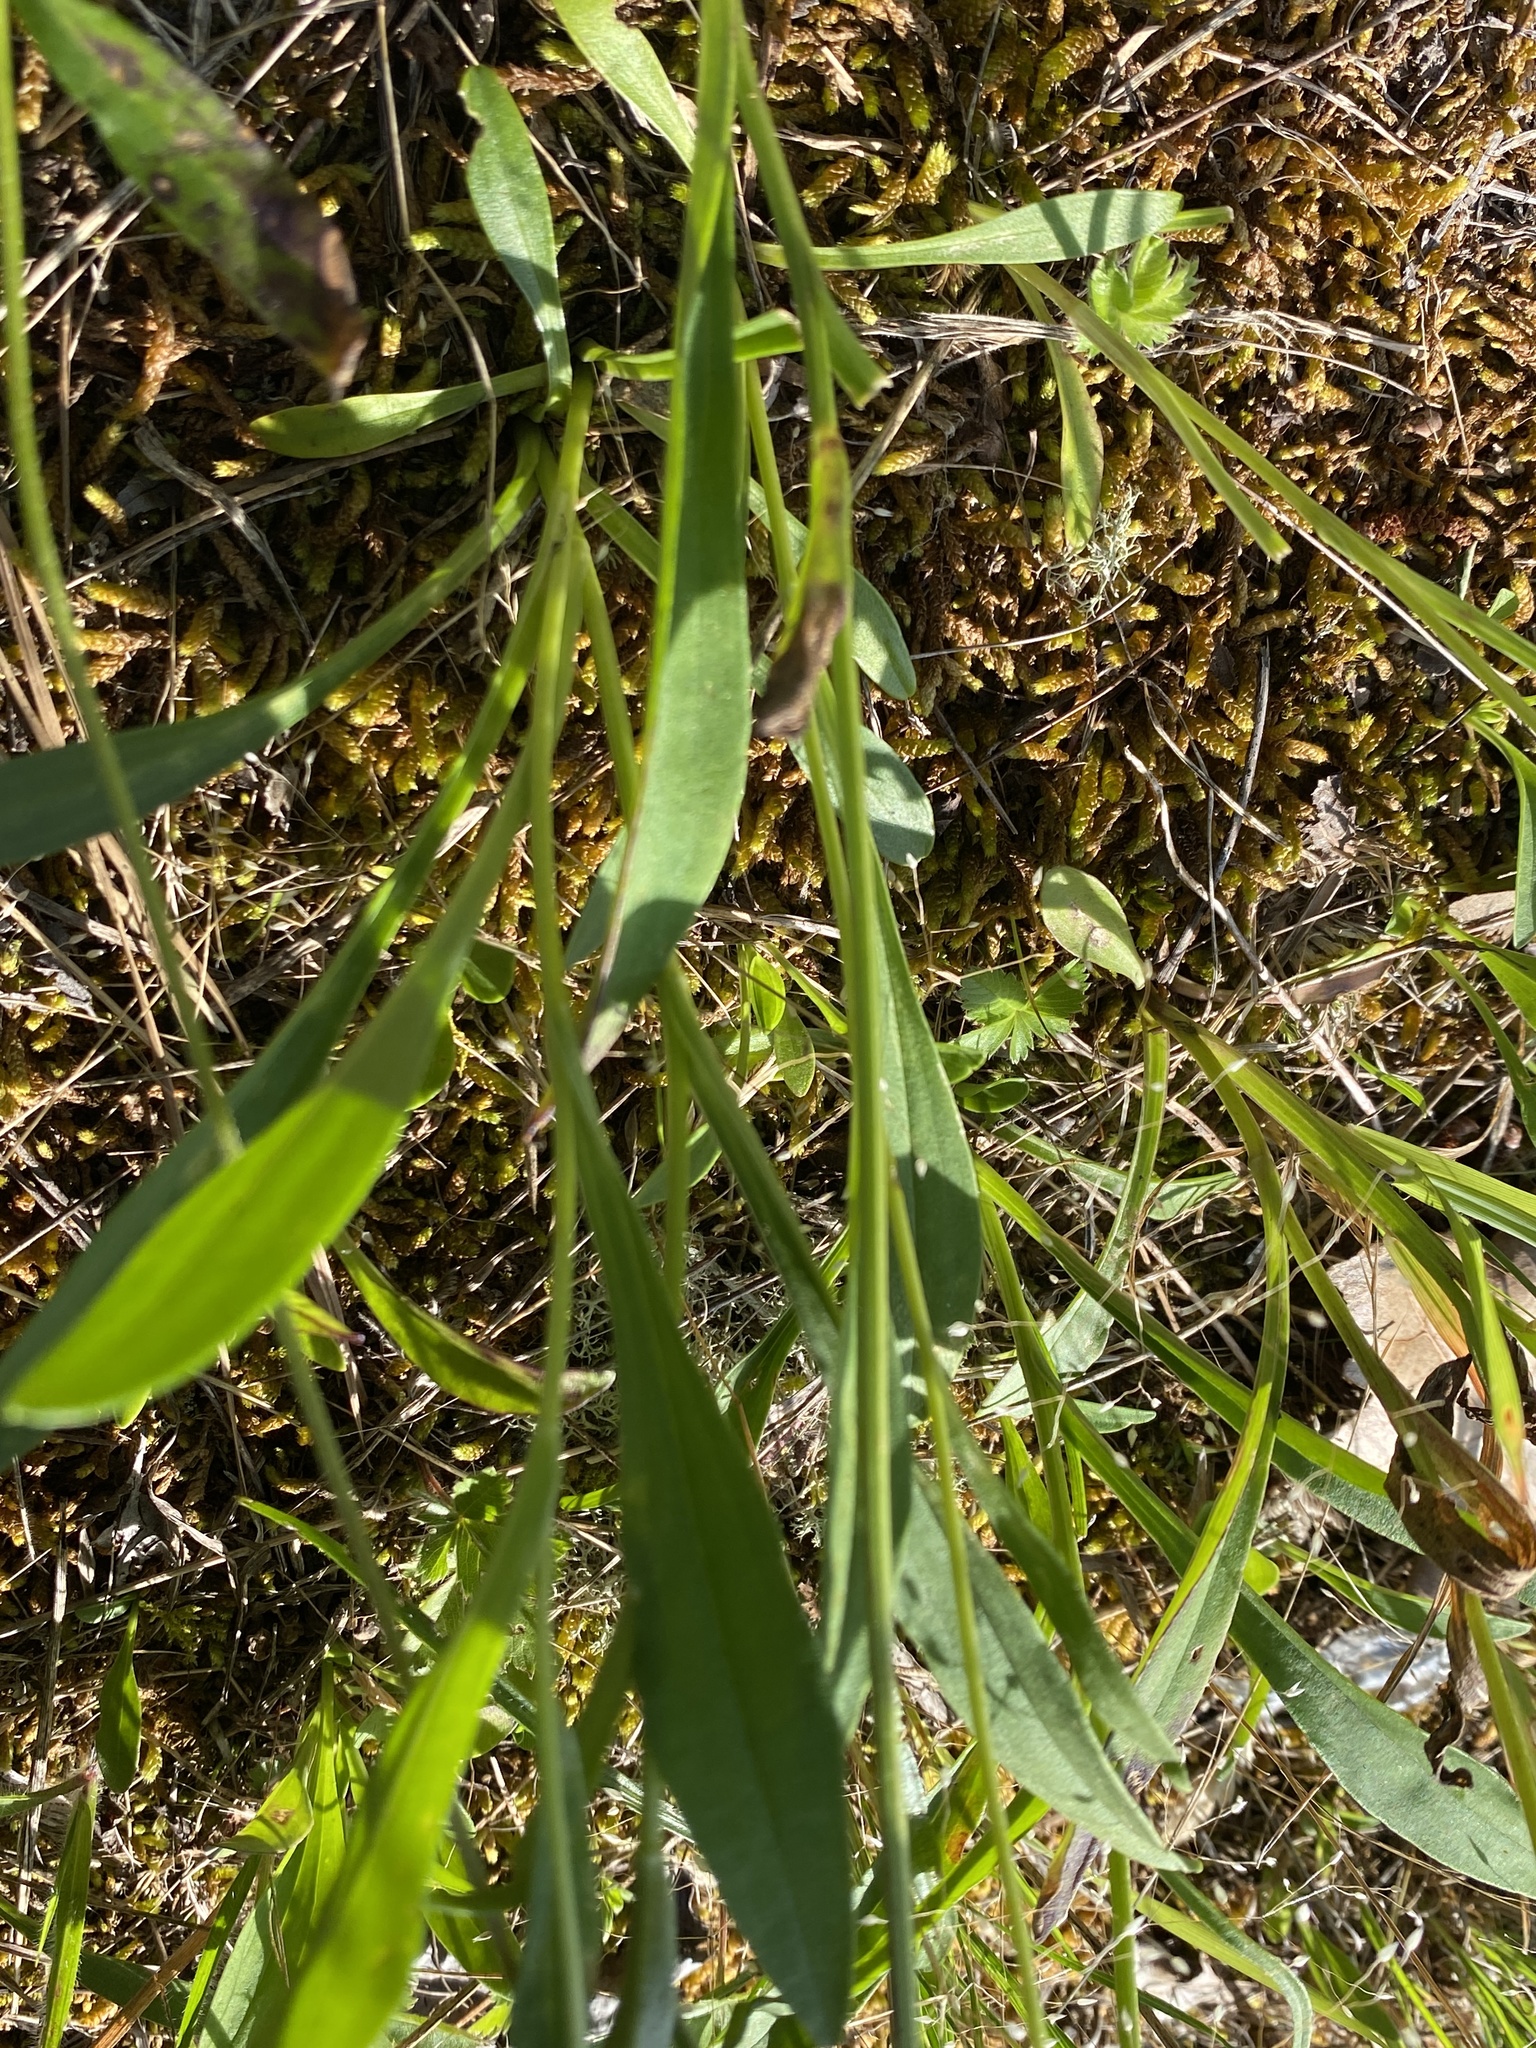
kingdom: Plantae
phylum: Tracheophyta
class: Magnoliopsida
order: Asterales
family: Asteraceae
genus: Marshallia
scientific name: Marshallia obovata
